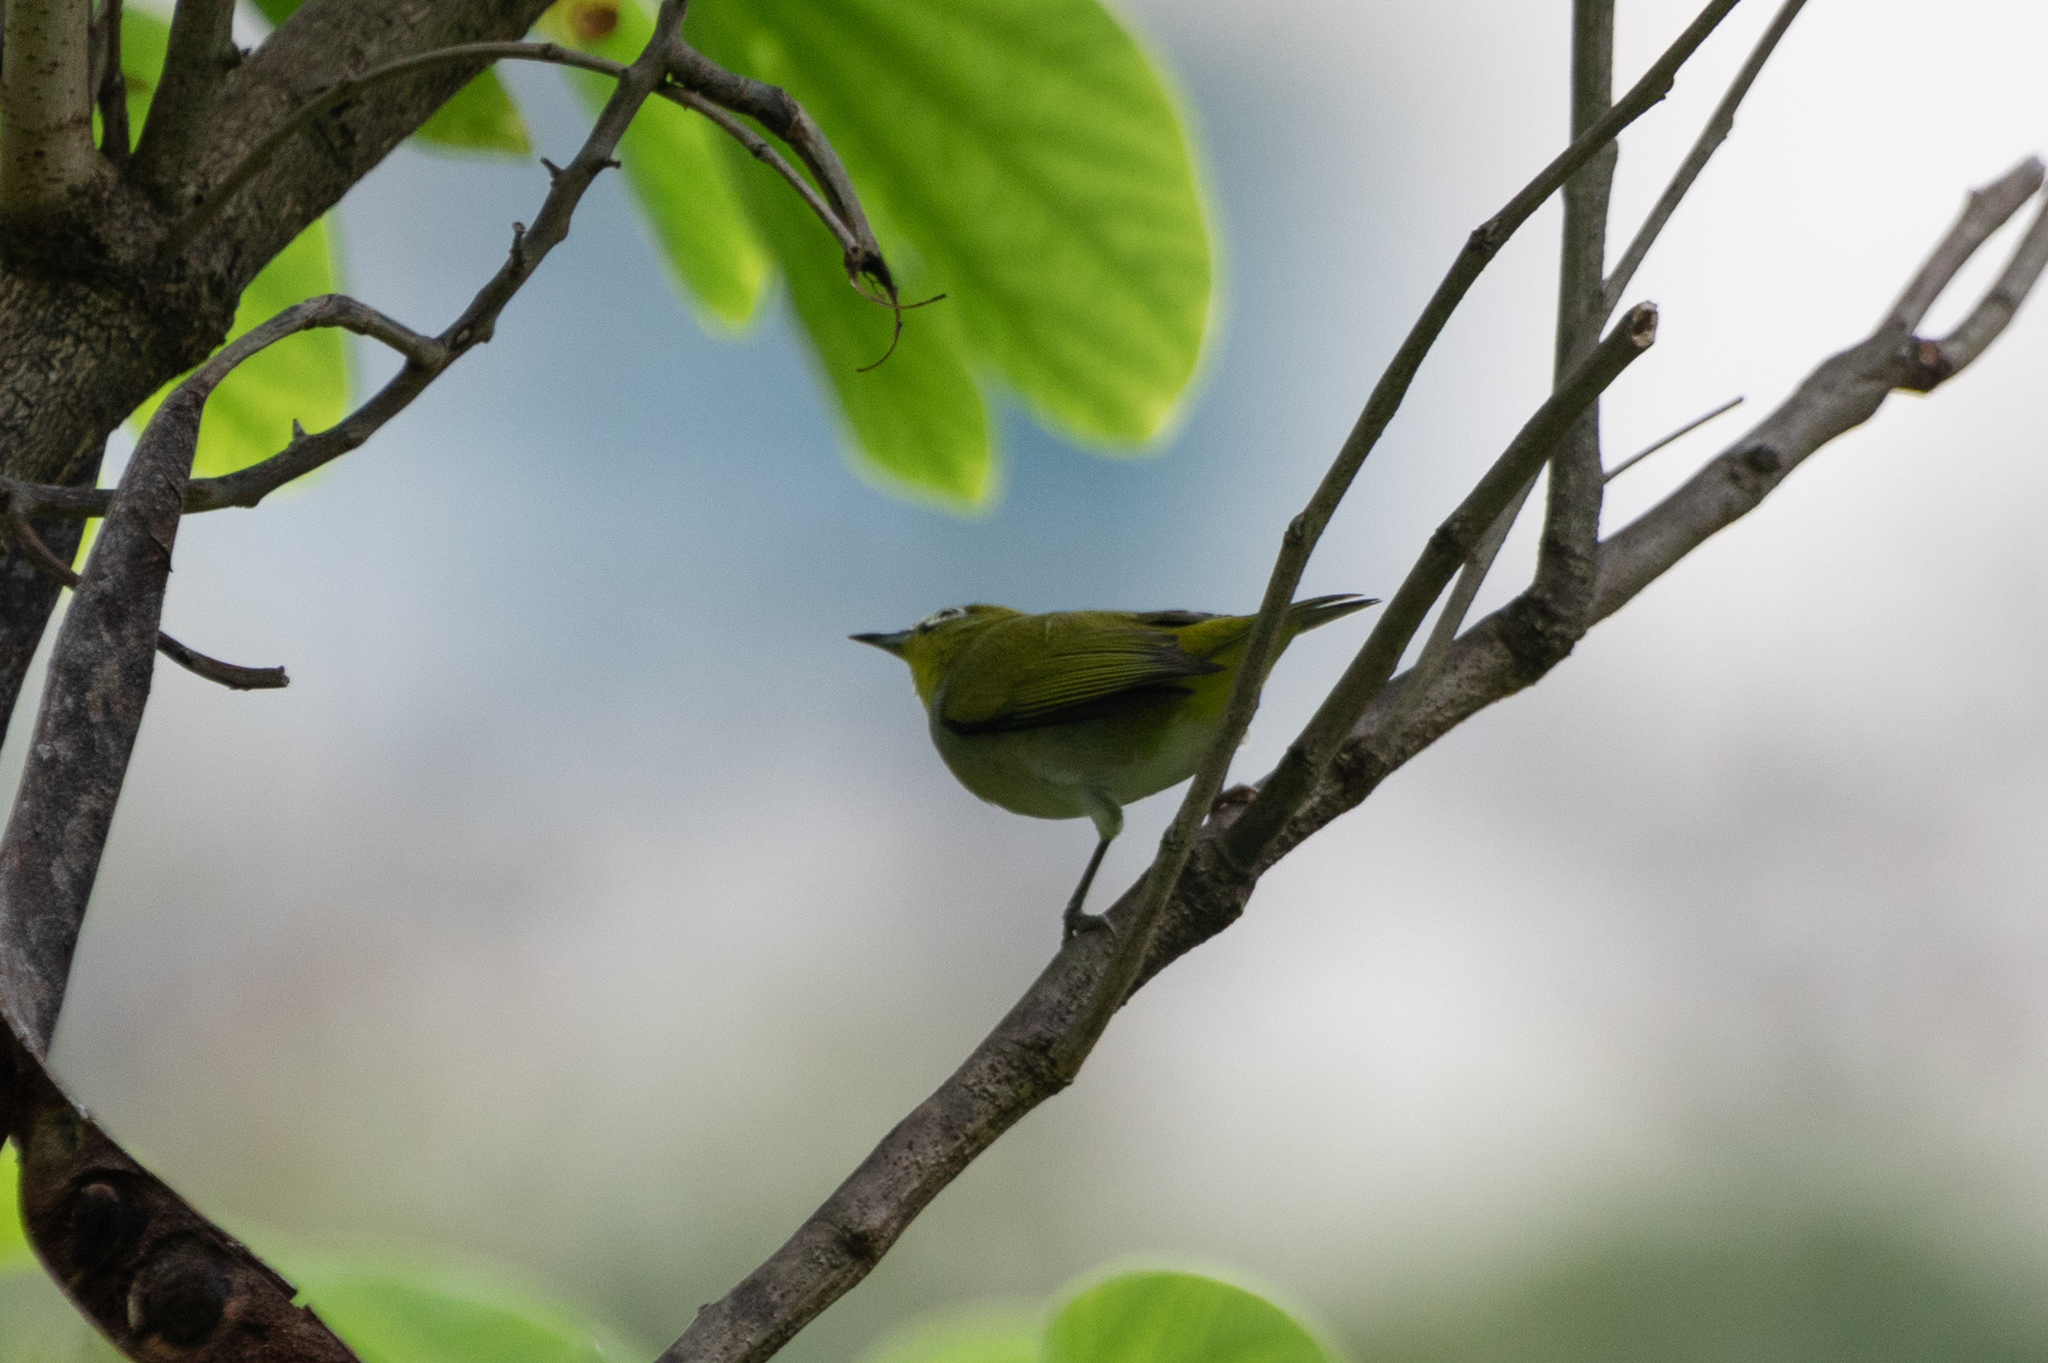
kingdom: Animalia
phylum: Chordata
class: Aves
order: Passeriformes
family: Zosteropidae
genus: Zosterops
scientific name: Zosterops simplex
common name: Swinhoe's white-eye
